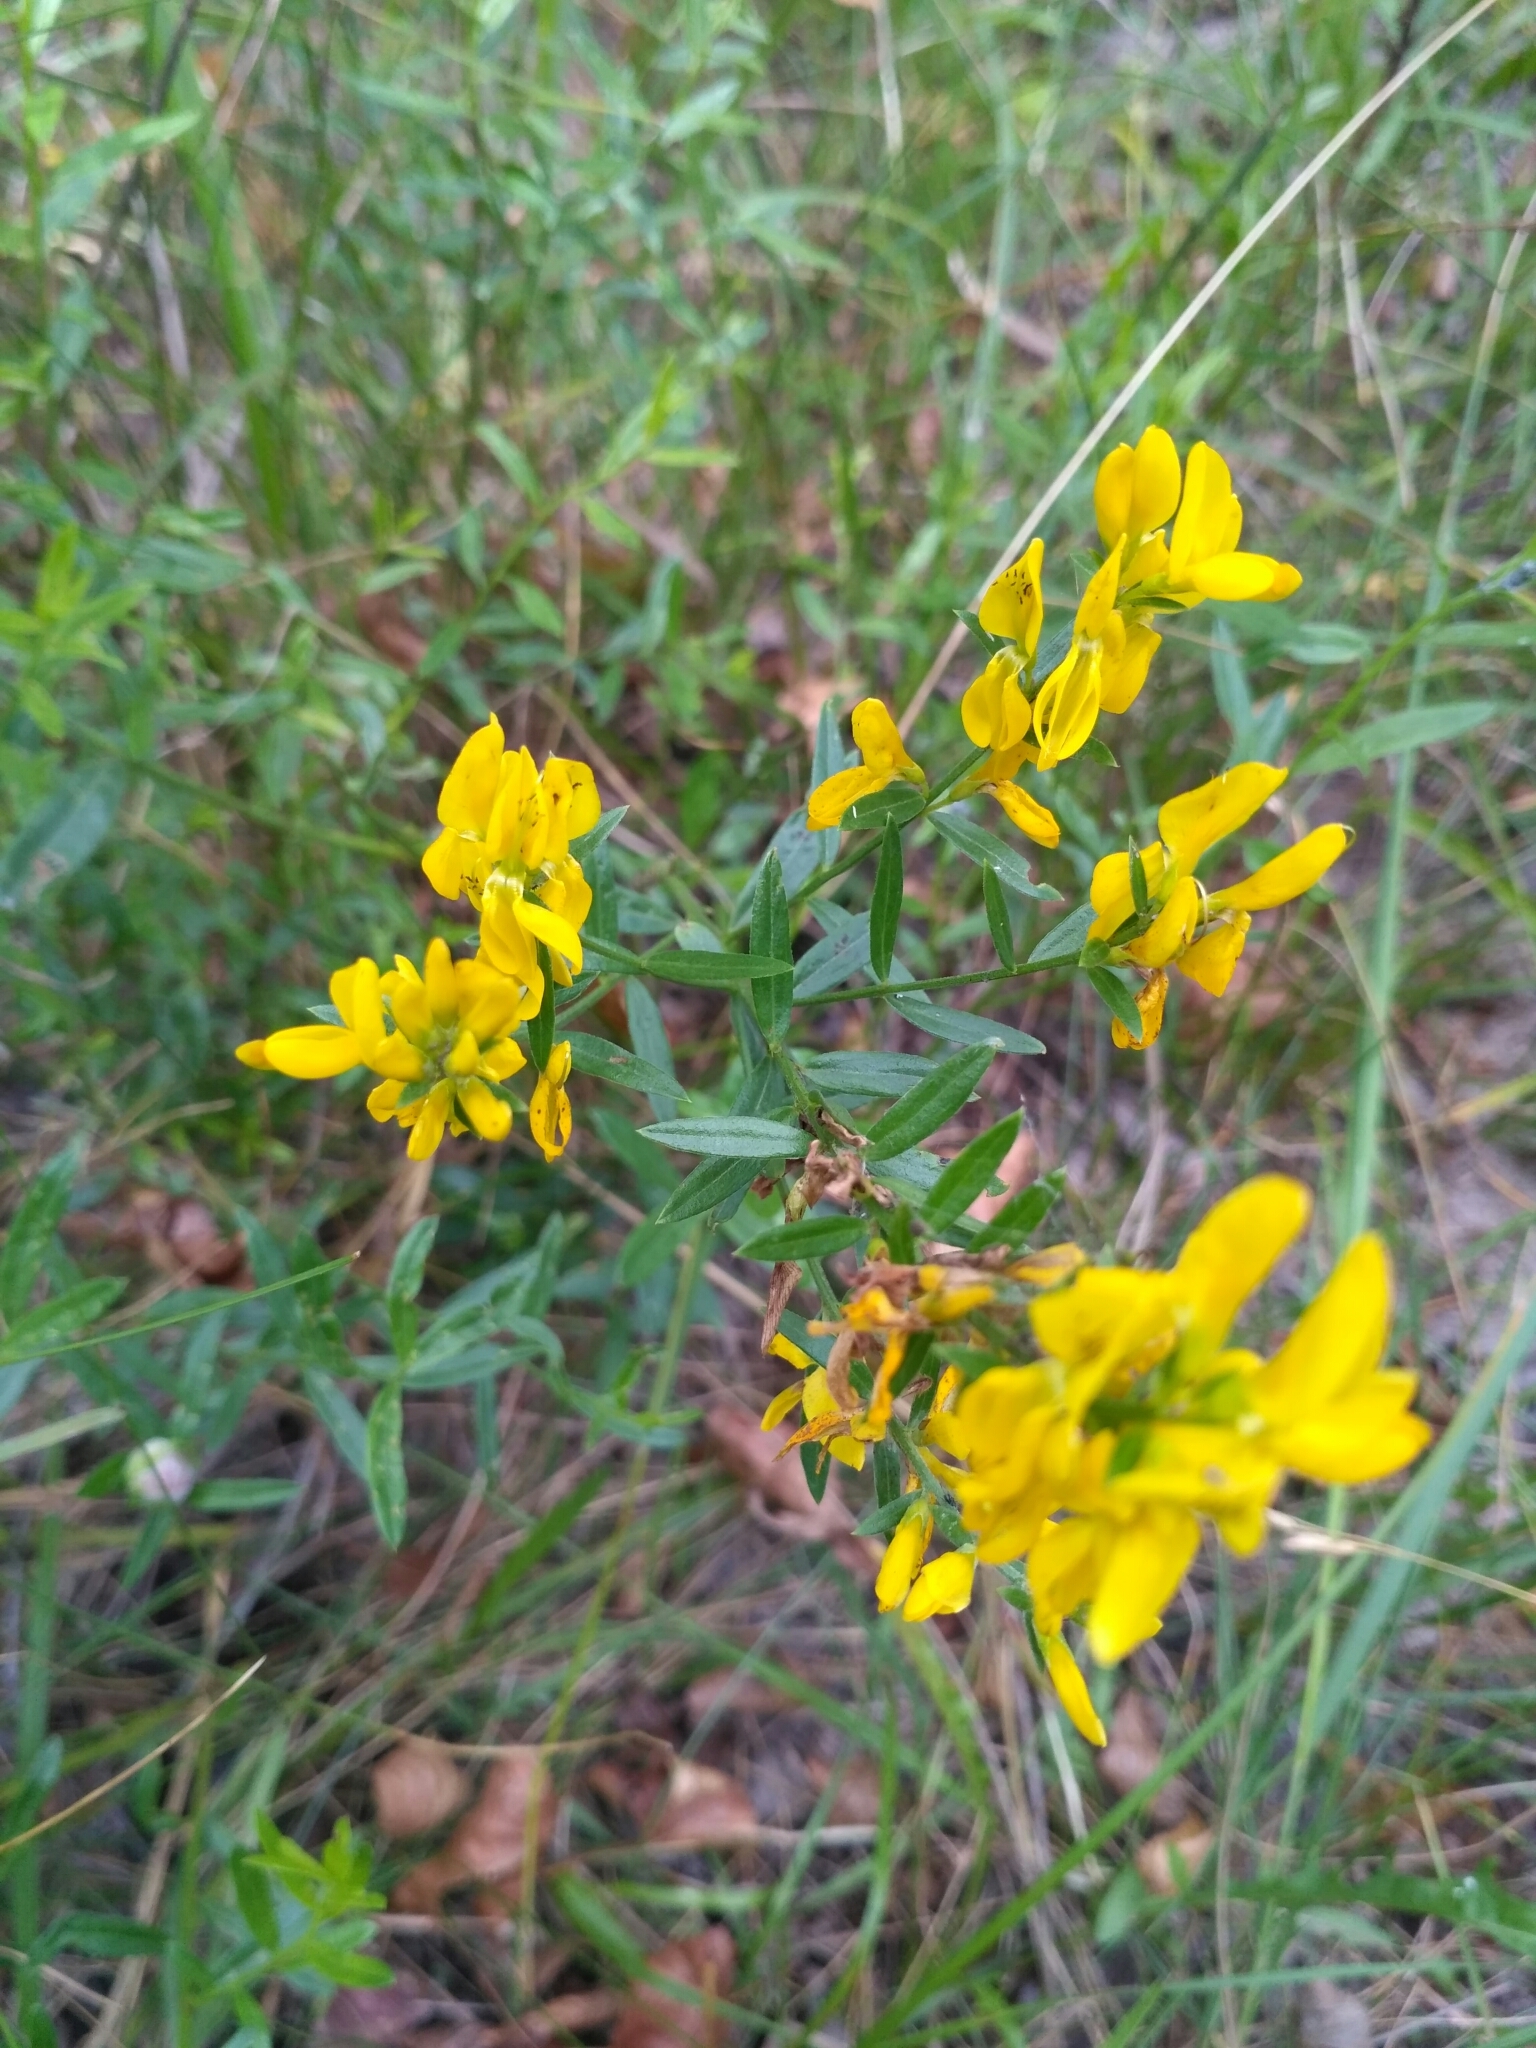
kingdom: Plantae
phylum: Tracheophyta
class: Magnoliopsida
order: Fabales
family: Fabaceae
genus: Genista
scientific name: Genista tinctoria
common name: Dyer's greenweed
